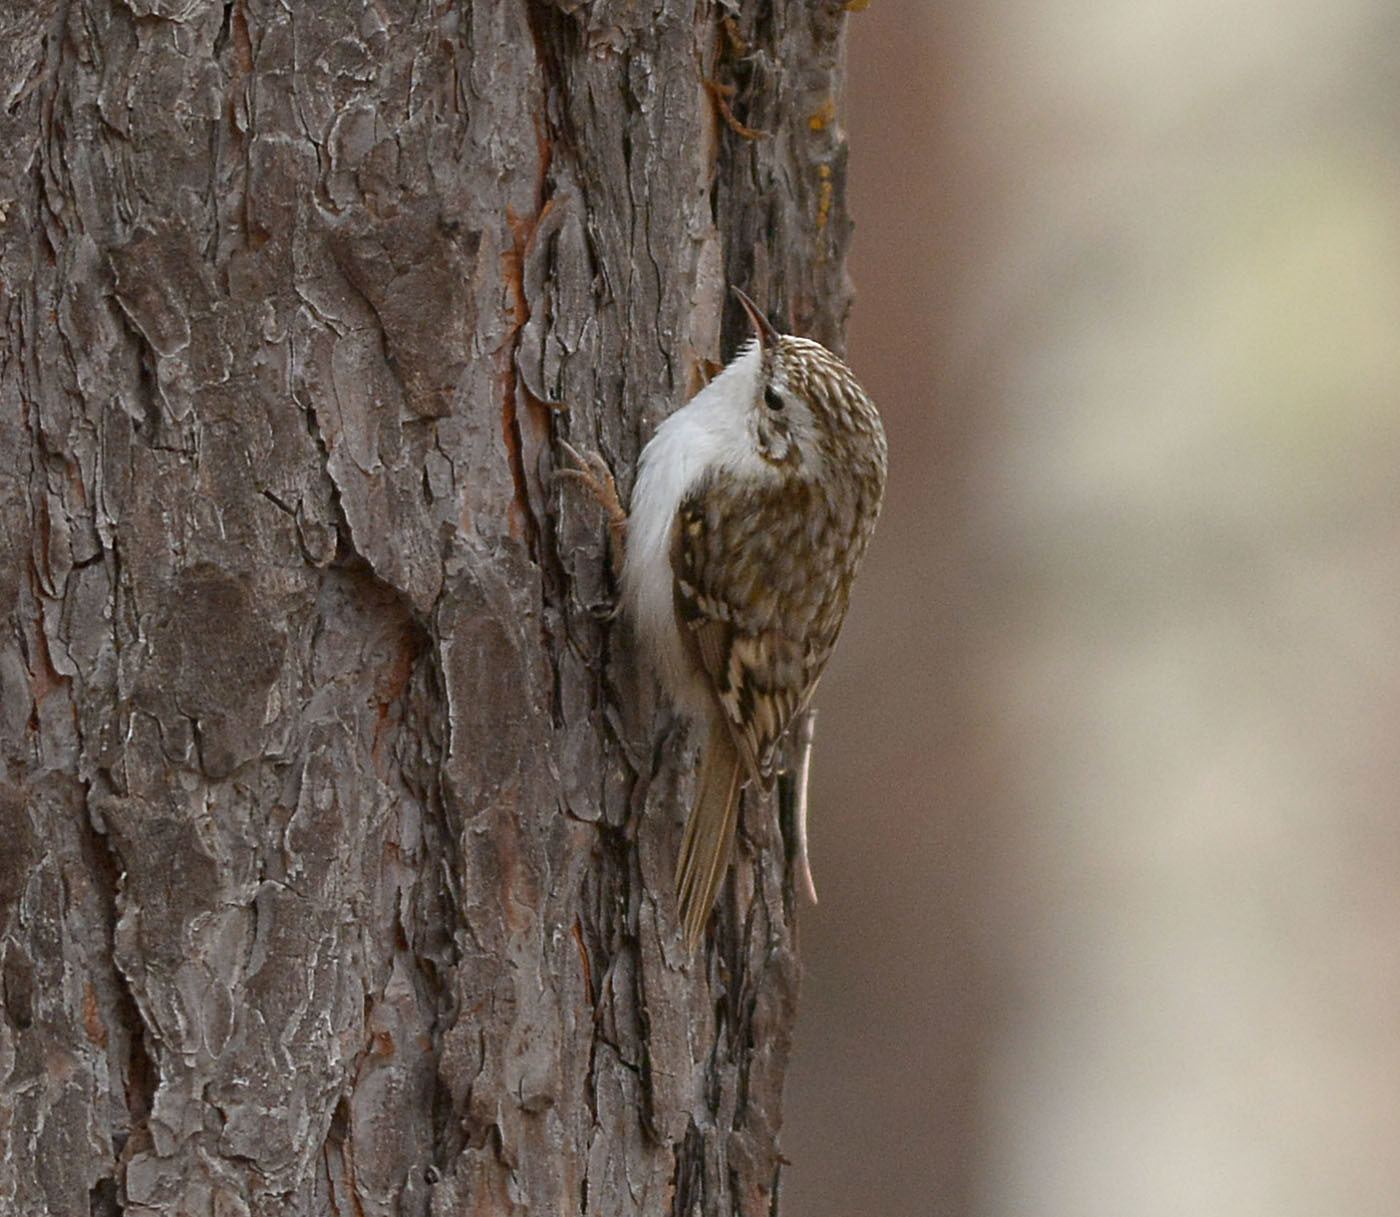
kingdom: Animalia
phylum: Chordata
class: Aves
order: Passeriformes
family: Certhiidae
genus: Certhia
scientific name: Certhia familiaris
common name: Eurasian treecreeper
